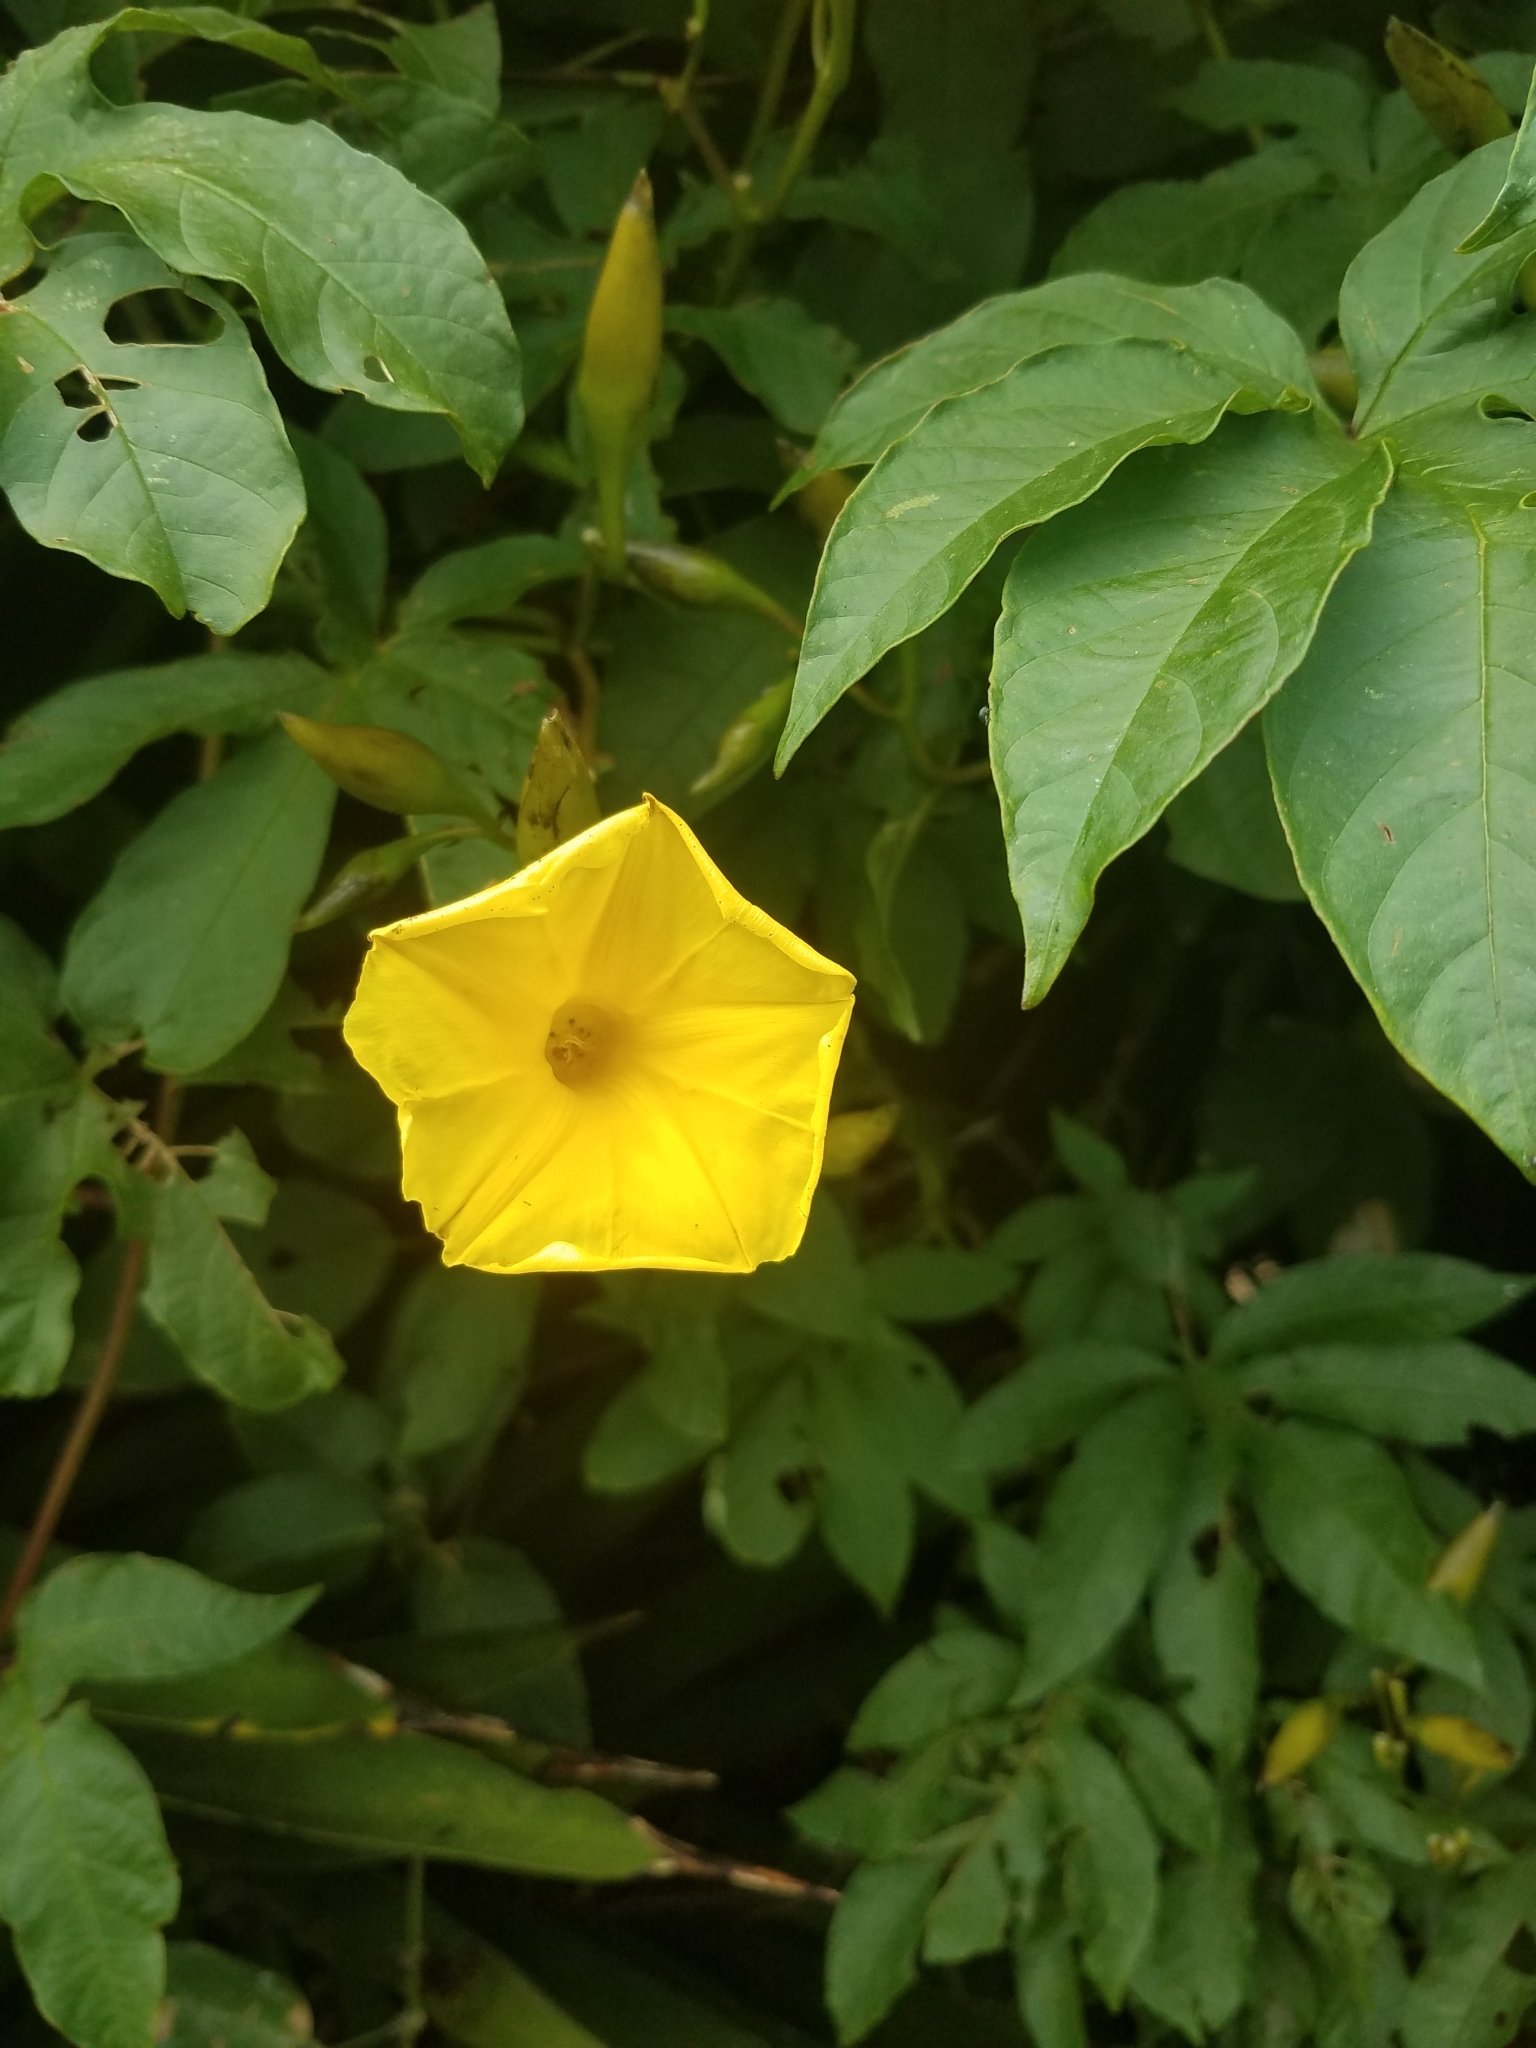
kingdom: Plantae
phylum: Tracheophyta
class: Magnoliopsida
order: Solanales
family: Convolvulaceae
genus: Distimake
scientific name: Distimake tuberosus
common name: Spanish arborvine
